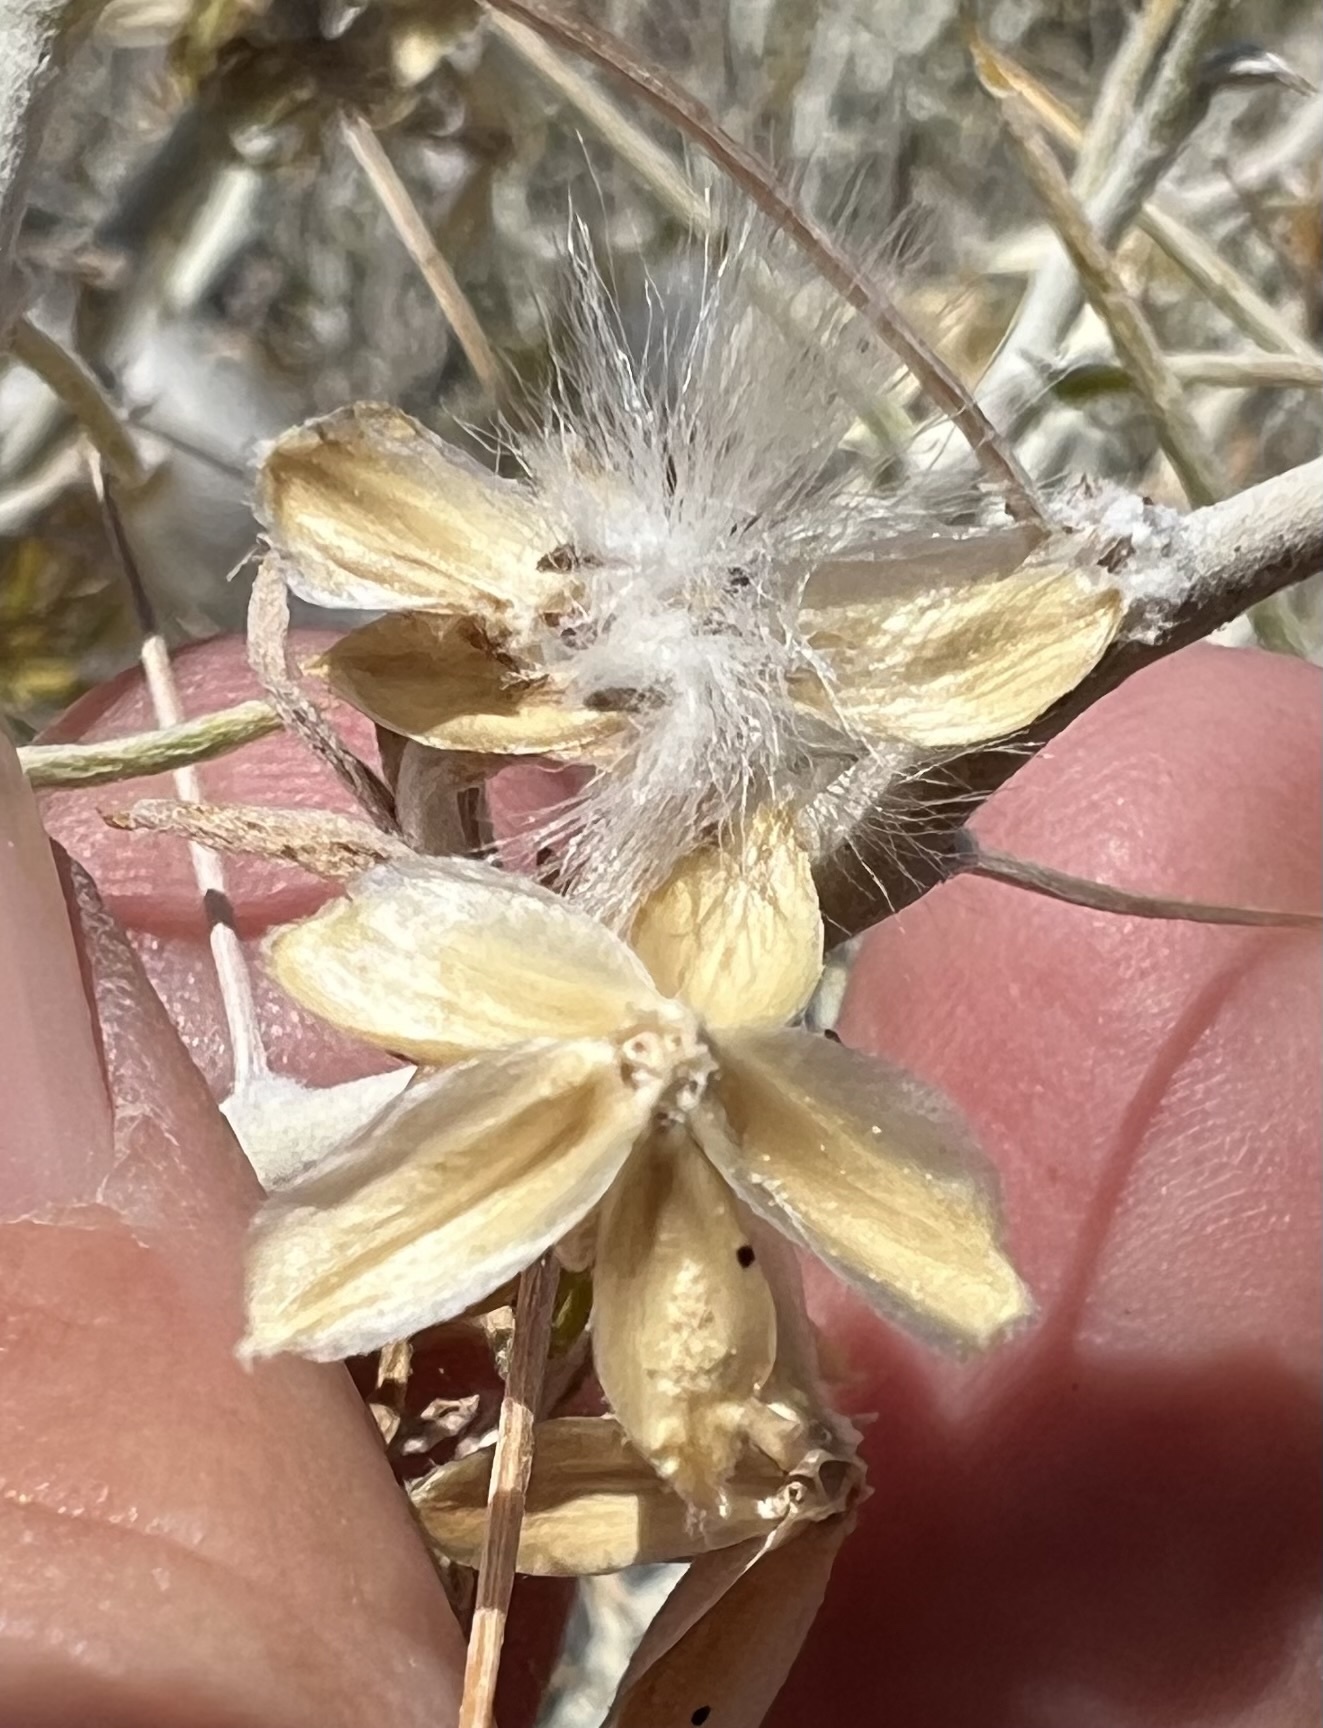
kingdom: Plantae
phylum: Tracheophyta
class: Magnoliopsida
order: Asterales
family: Asteraceae
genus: Tetradymia
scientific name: Tetradymia axillaris
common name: Long-spine horsebrush
